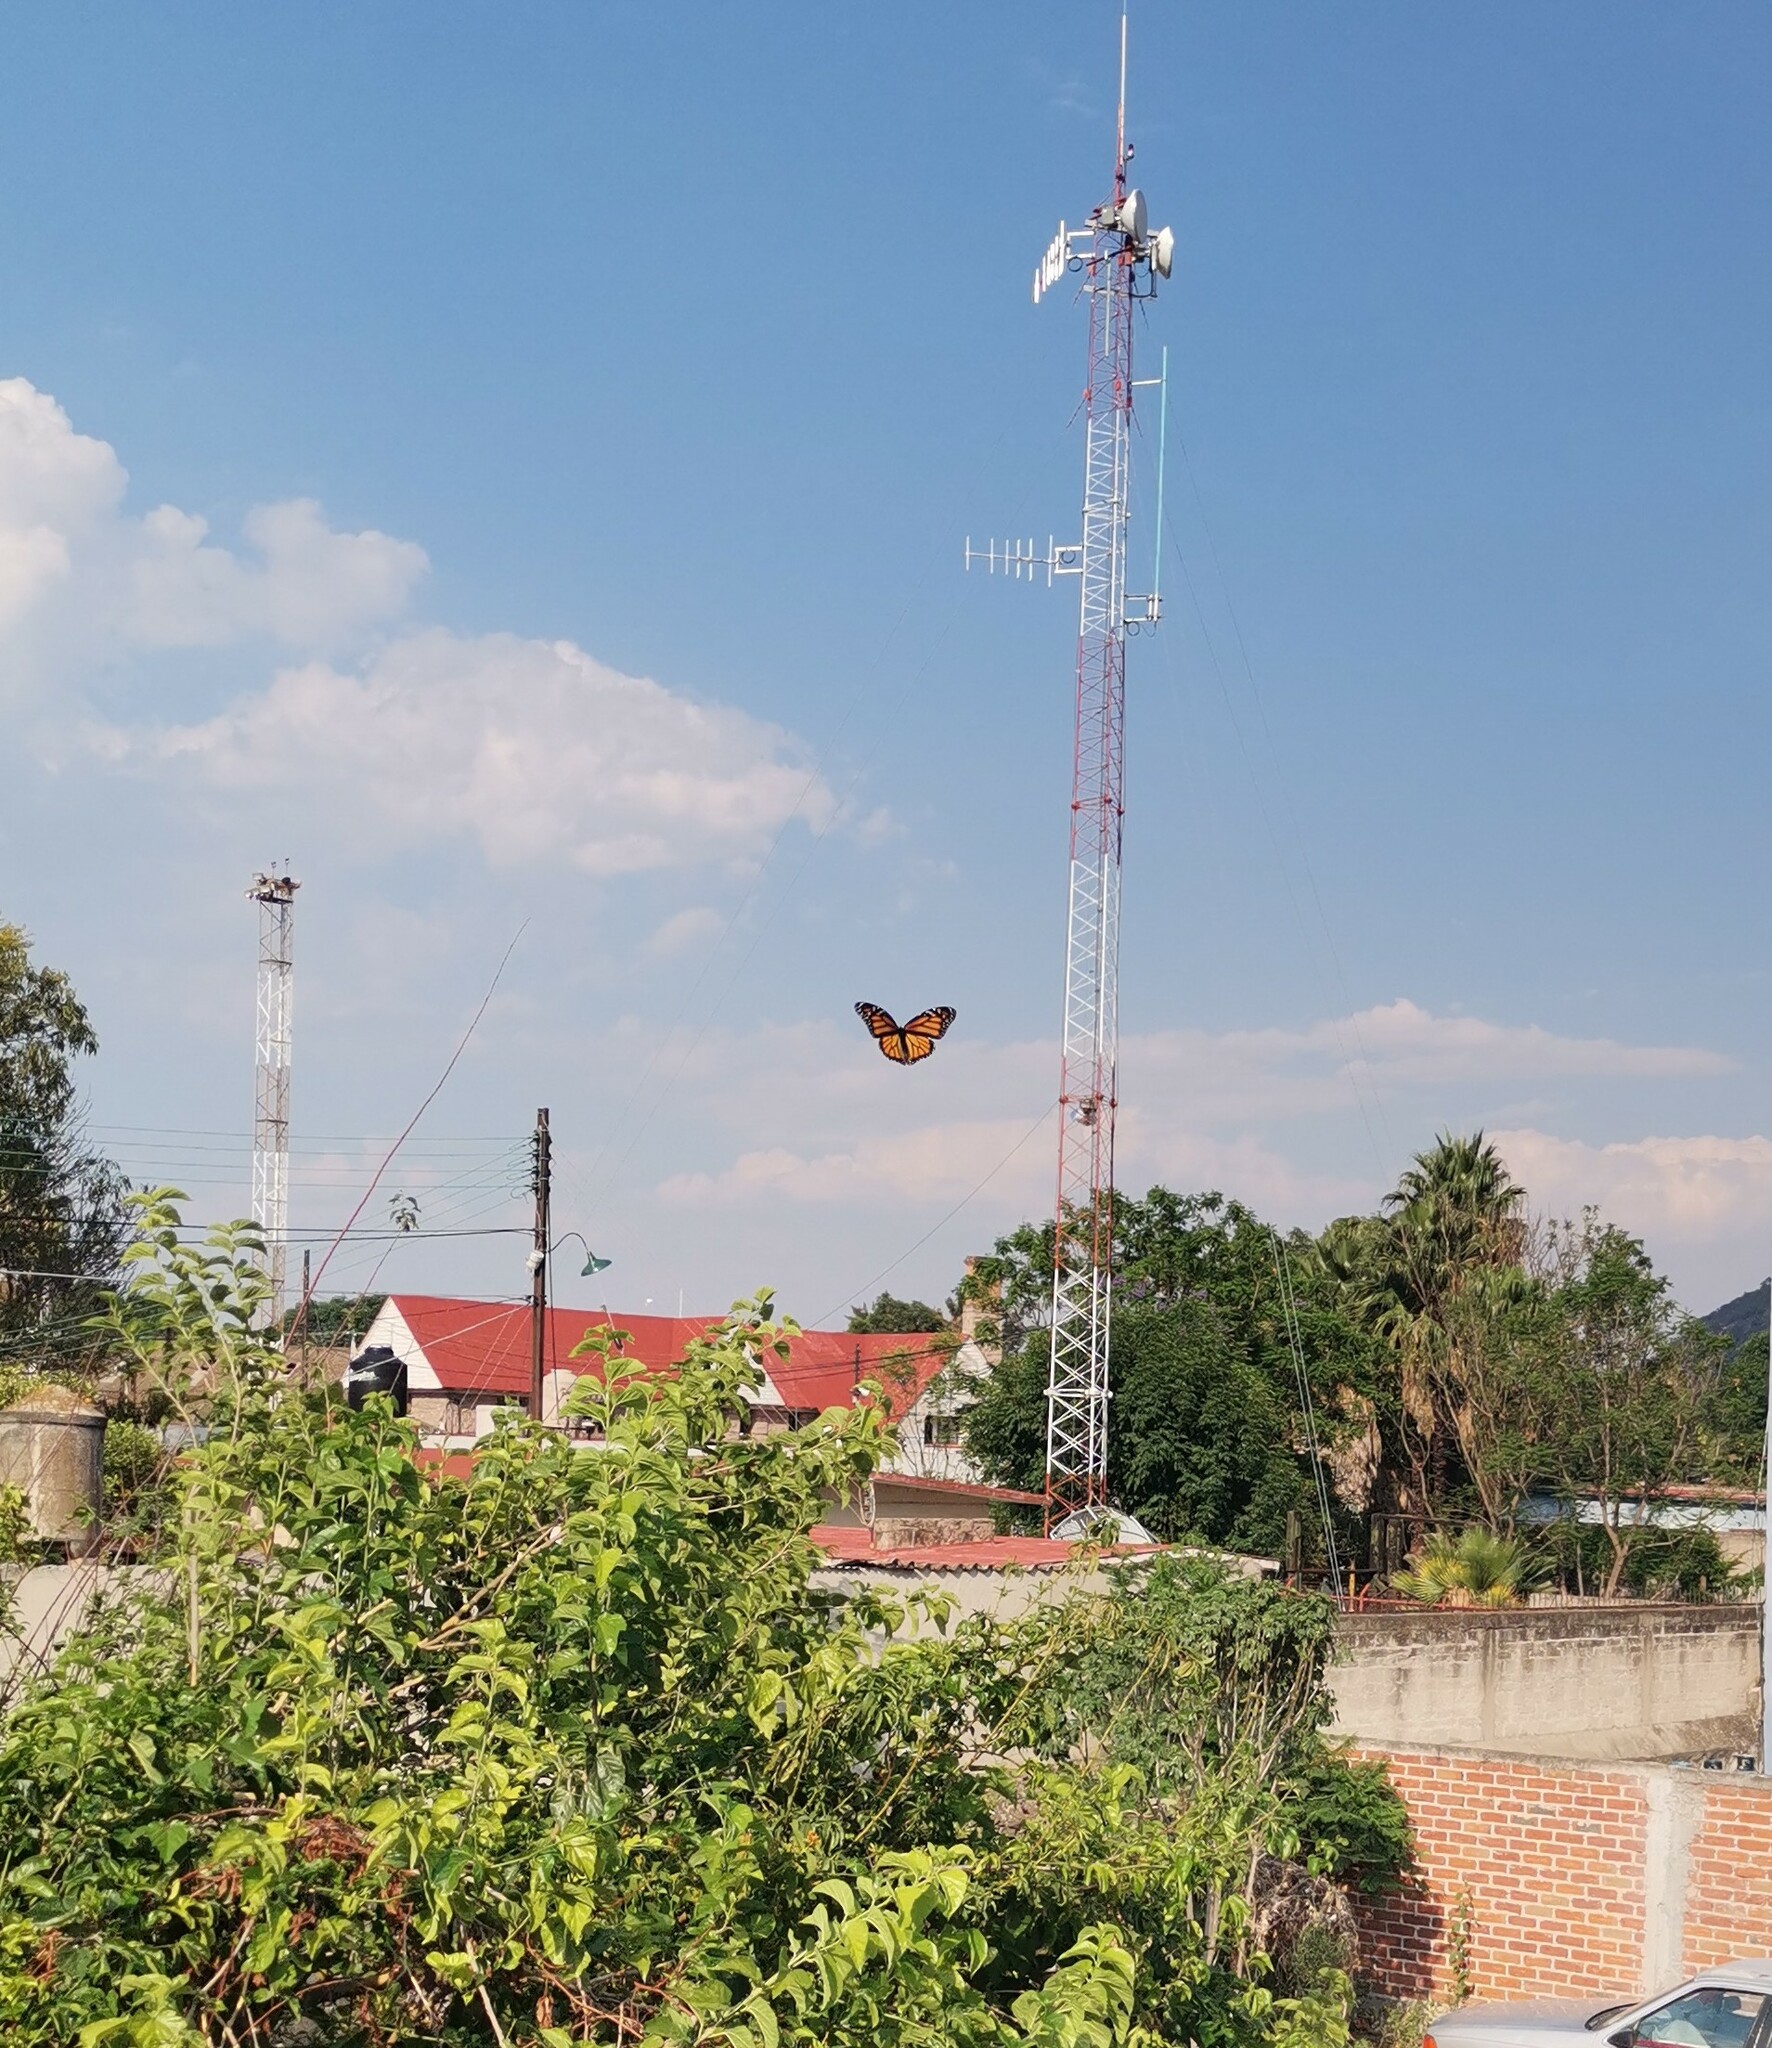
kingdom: Animalia
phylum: Arthropoda
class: Insecta
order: Lepidoptera
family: Nymphalidae
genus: Danaus
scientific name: Danaus plexippus
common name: Monarch
